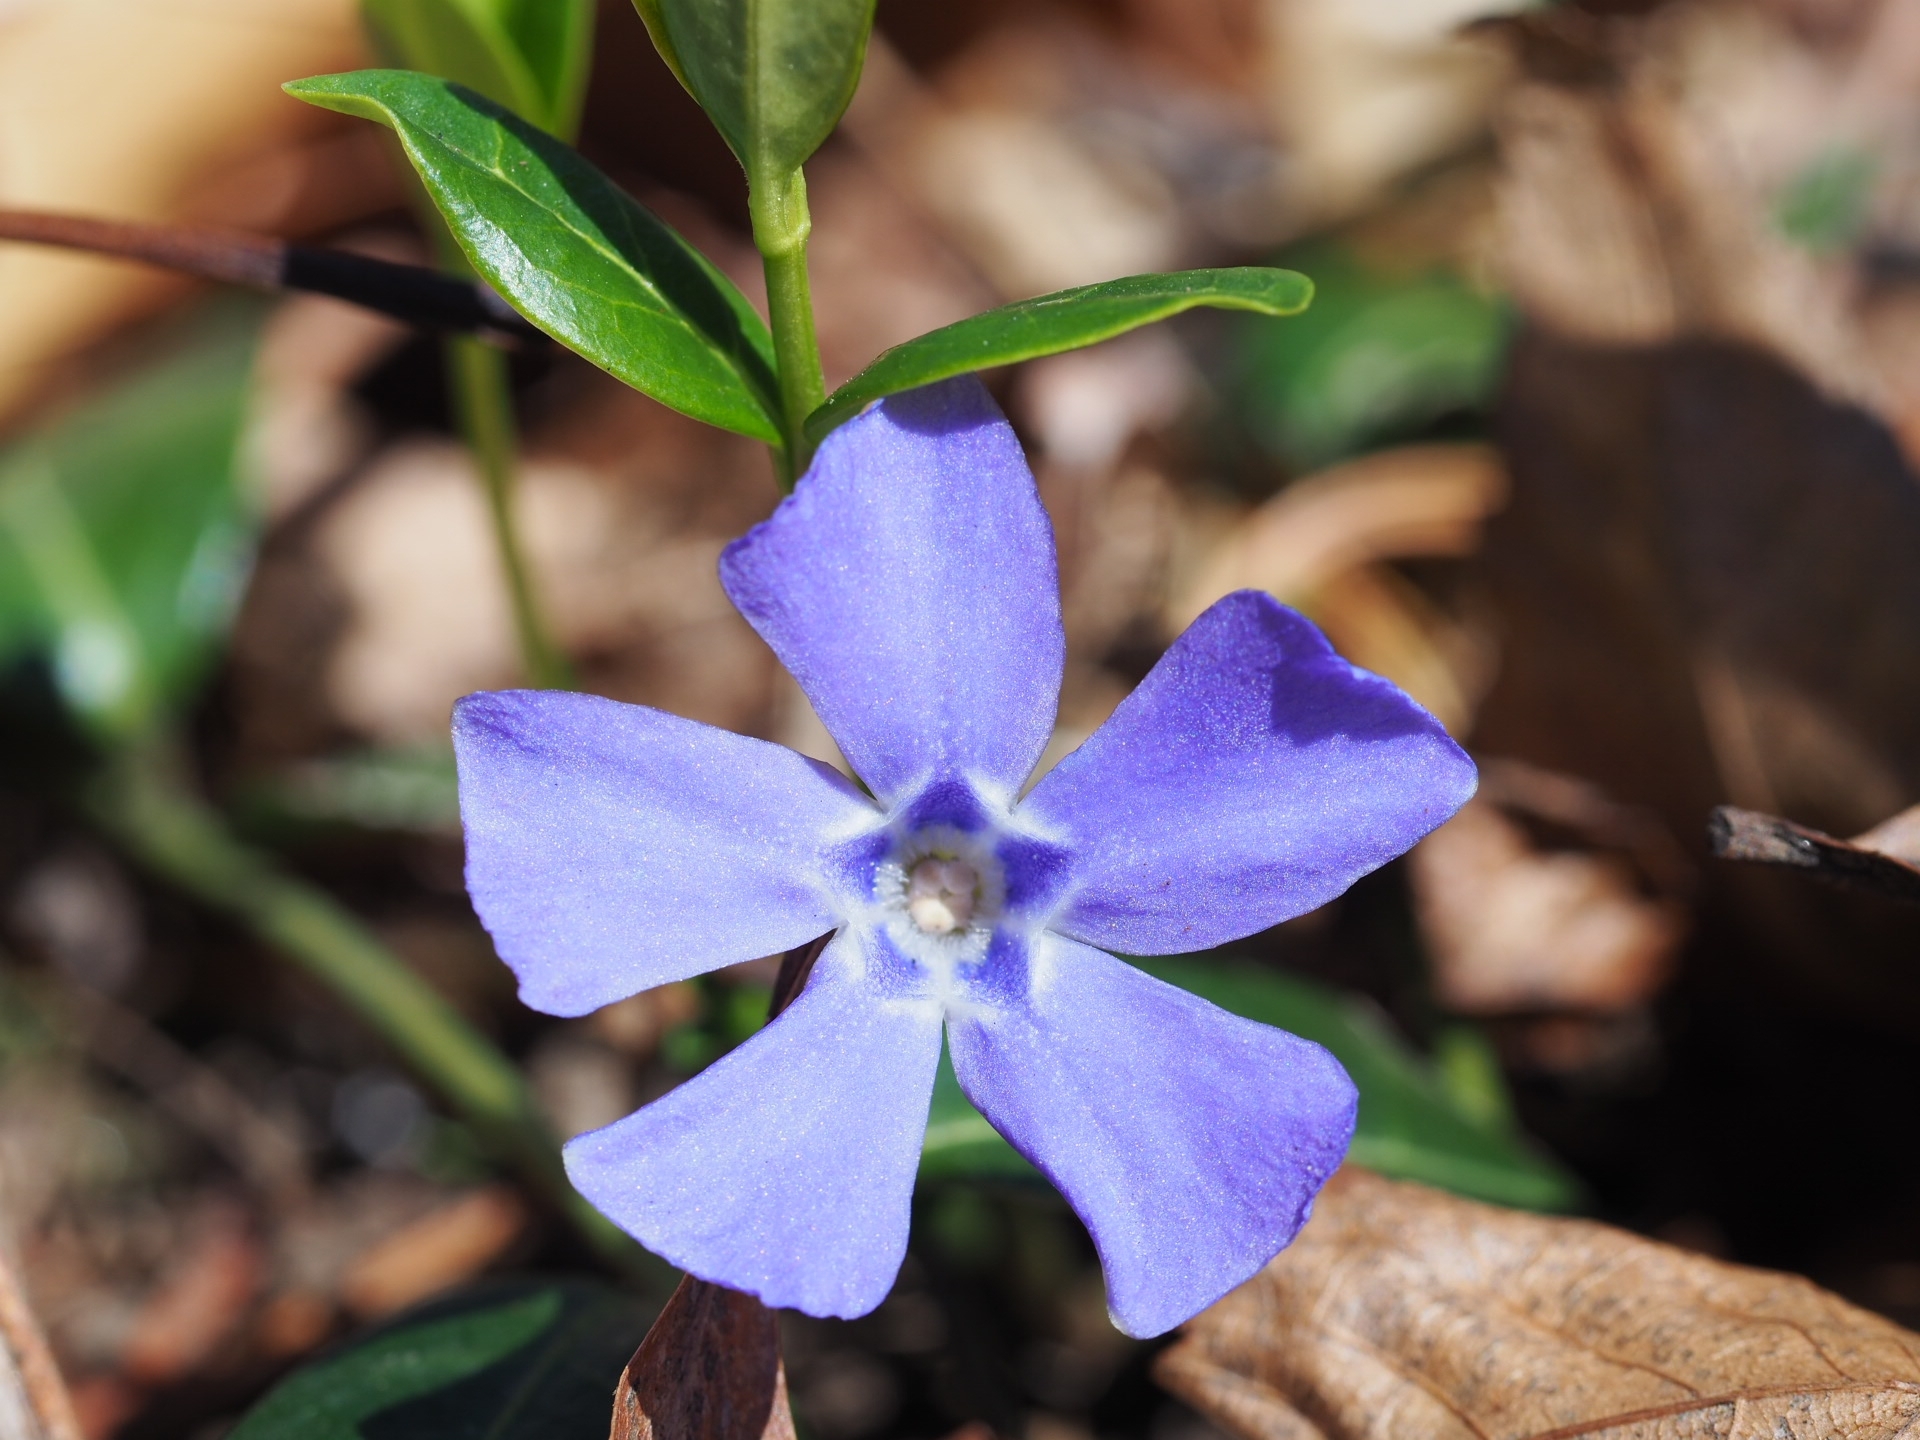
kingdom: Plantae
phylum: Tracheophyta
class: Magnoliopsida
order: Gentianales
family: Apocynaceae
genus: Vinca
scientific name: Vinca minor
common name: Lesser periwinkle
